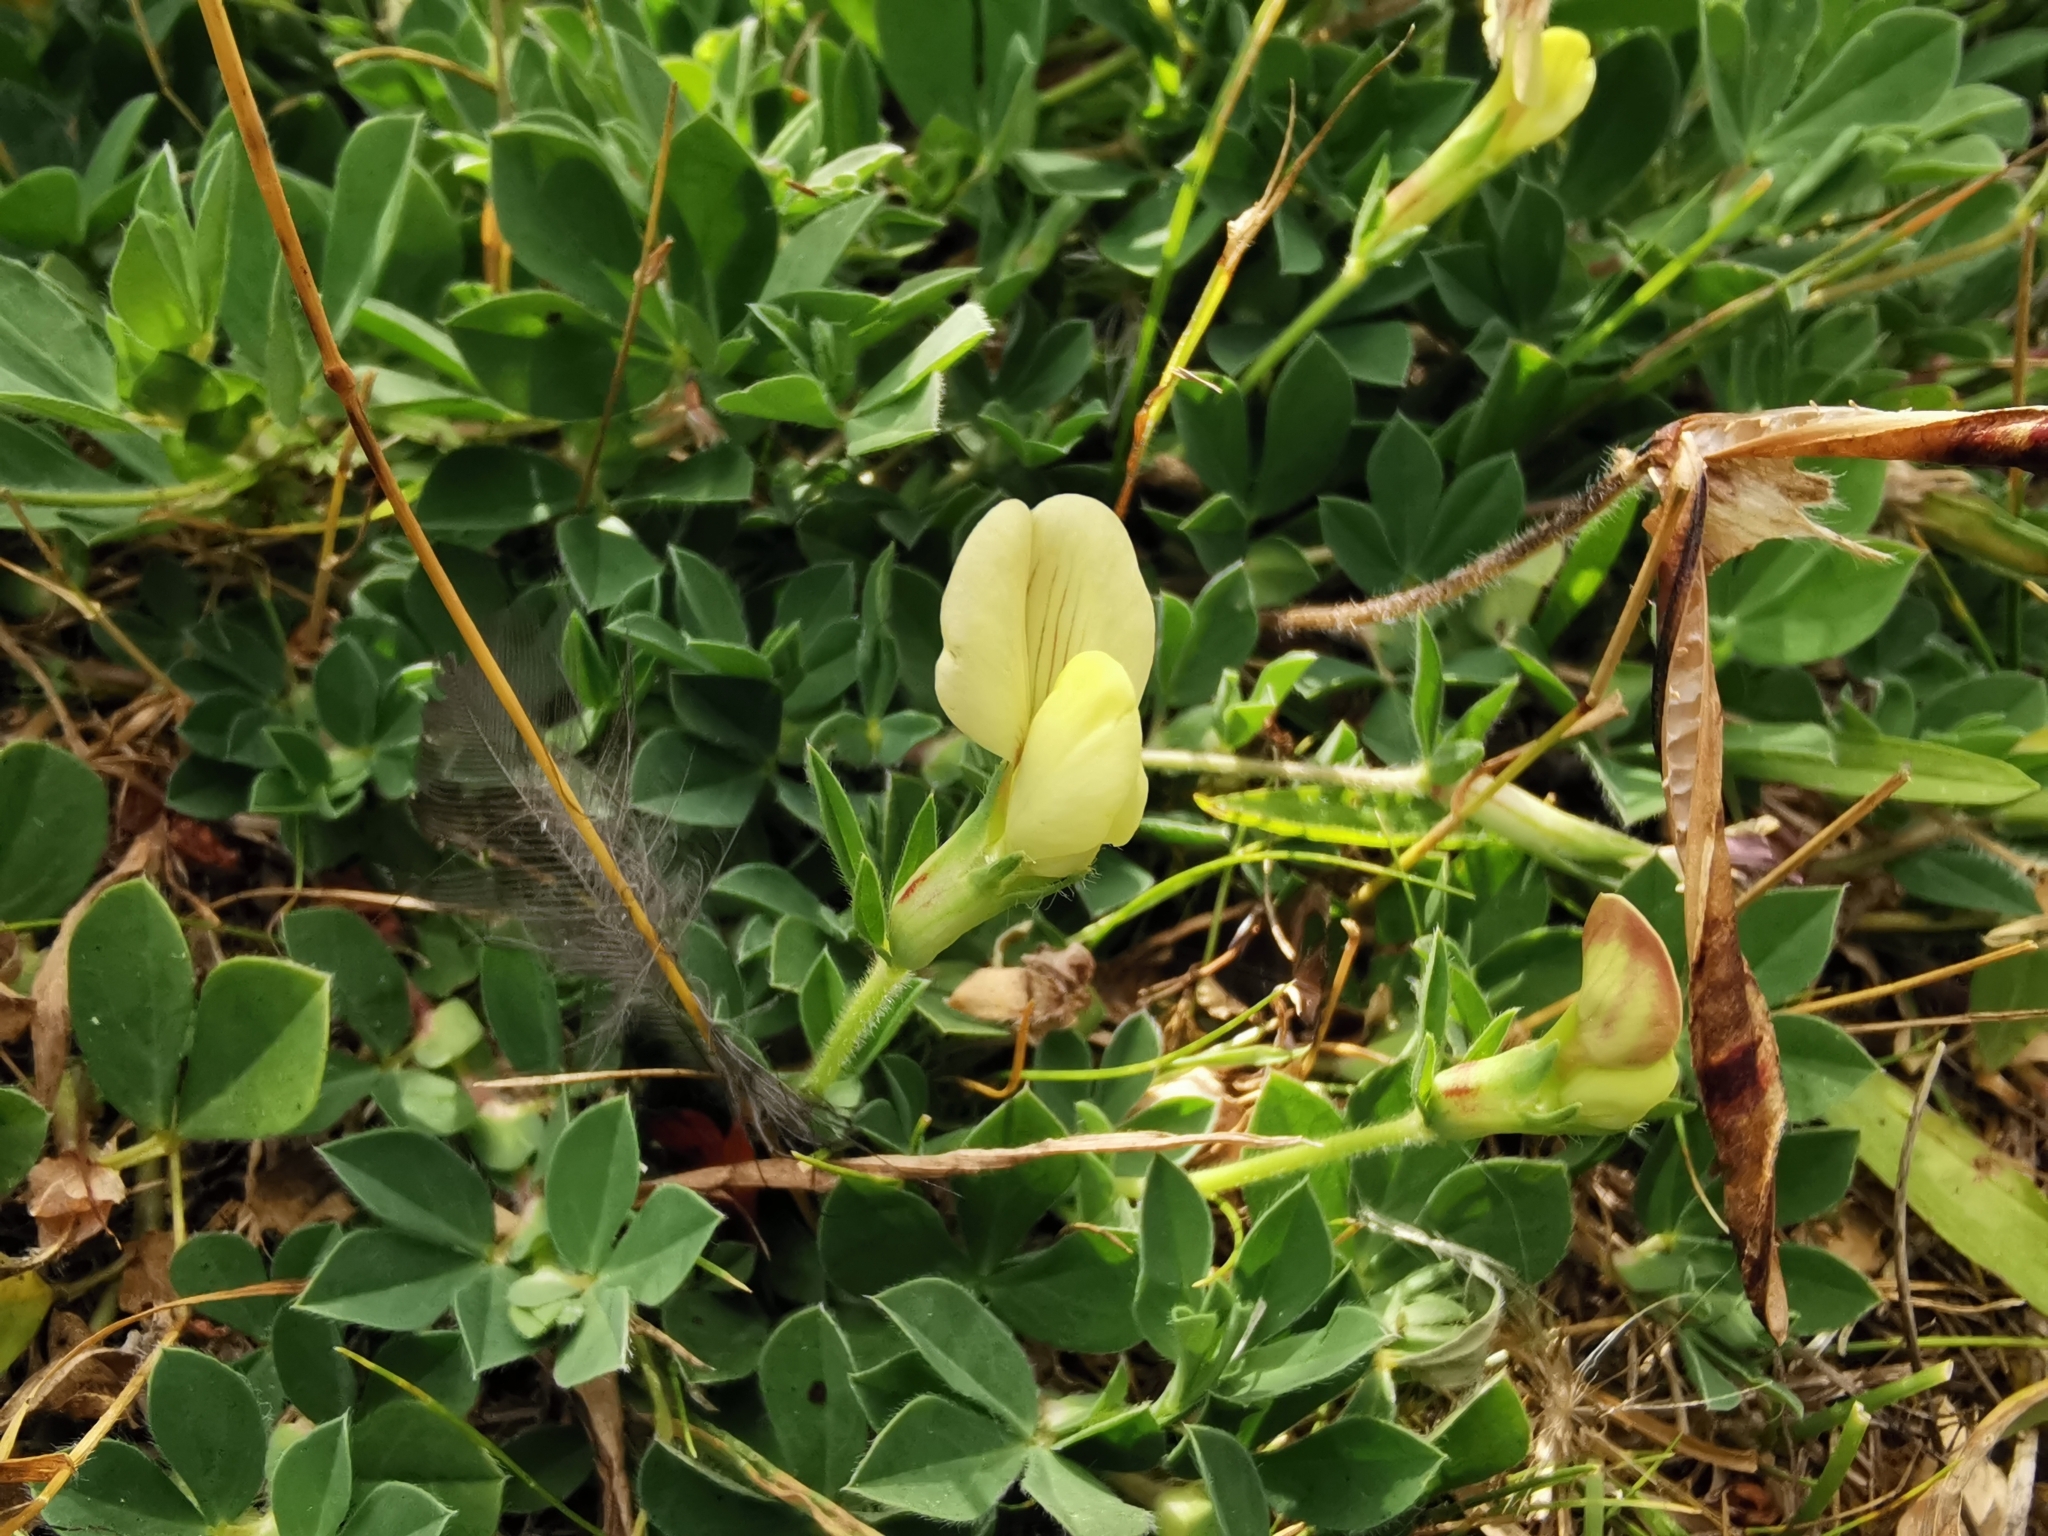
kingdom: Plantae
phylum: Tracheophyta
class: Magnoliopsida
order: Fabales
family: Fabaceae
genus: Lotus
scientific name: Lotus maritimus
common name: Dragon's-teeth
